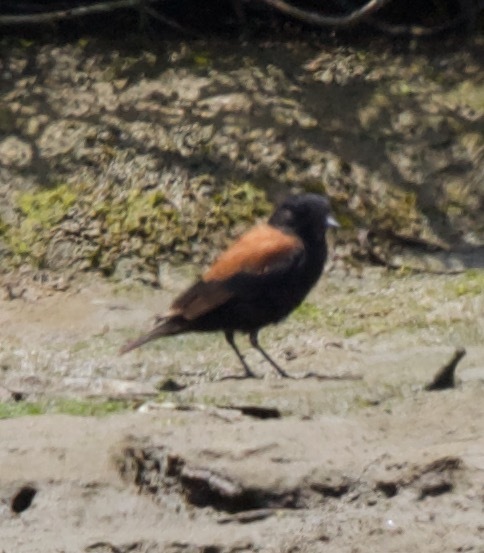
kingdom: Animalia
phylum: Chordata
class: Aves
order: Passeriformes
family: Tyrannidae
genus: Lessonia
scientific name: Lessonia rufa
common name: Austral negrito
